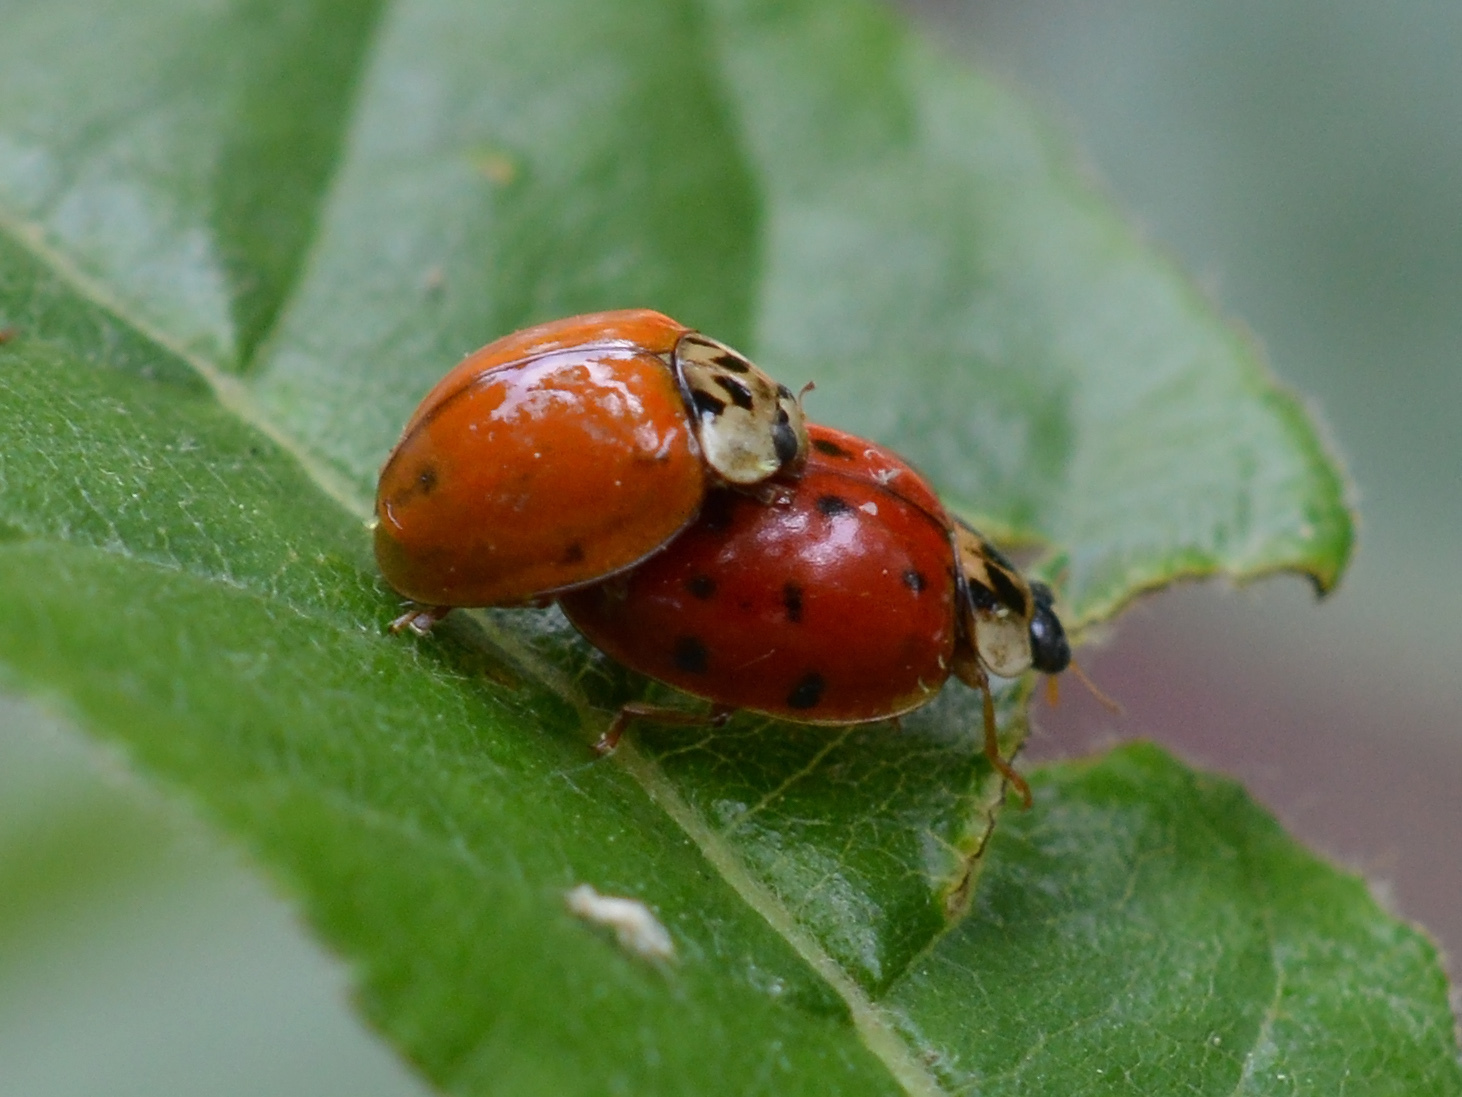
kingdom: Animalia
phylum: Arthropoda
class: Insecta
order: Coleoptera
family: Coccinellidae
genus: Harmonia
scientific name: Harmonia axyridis
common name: Harlequin ladybird
